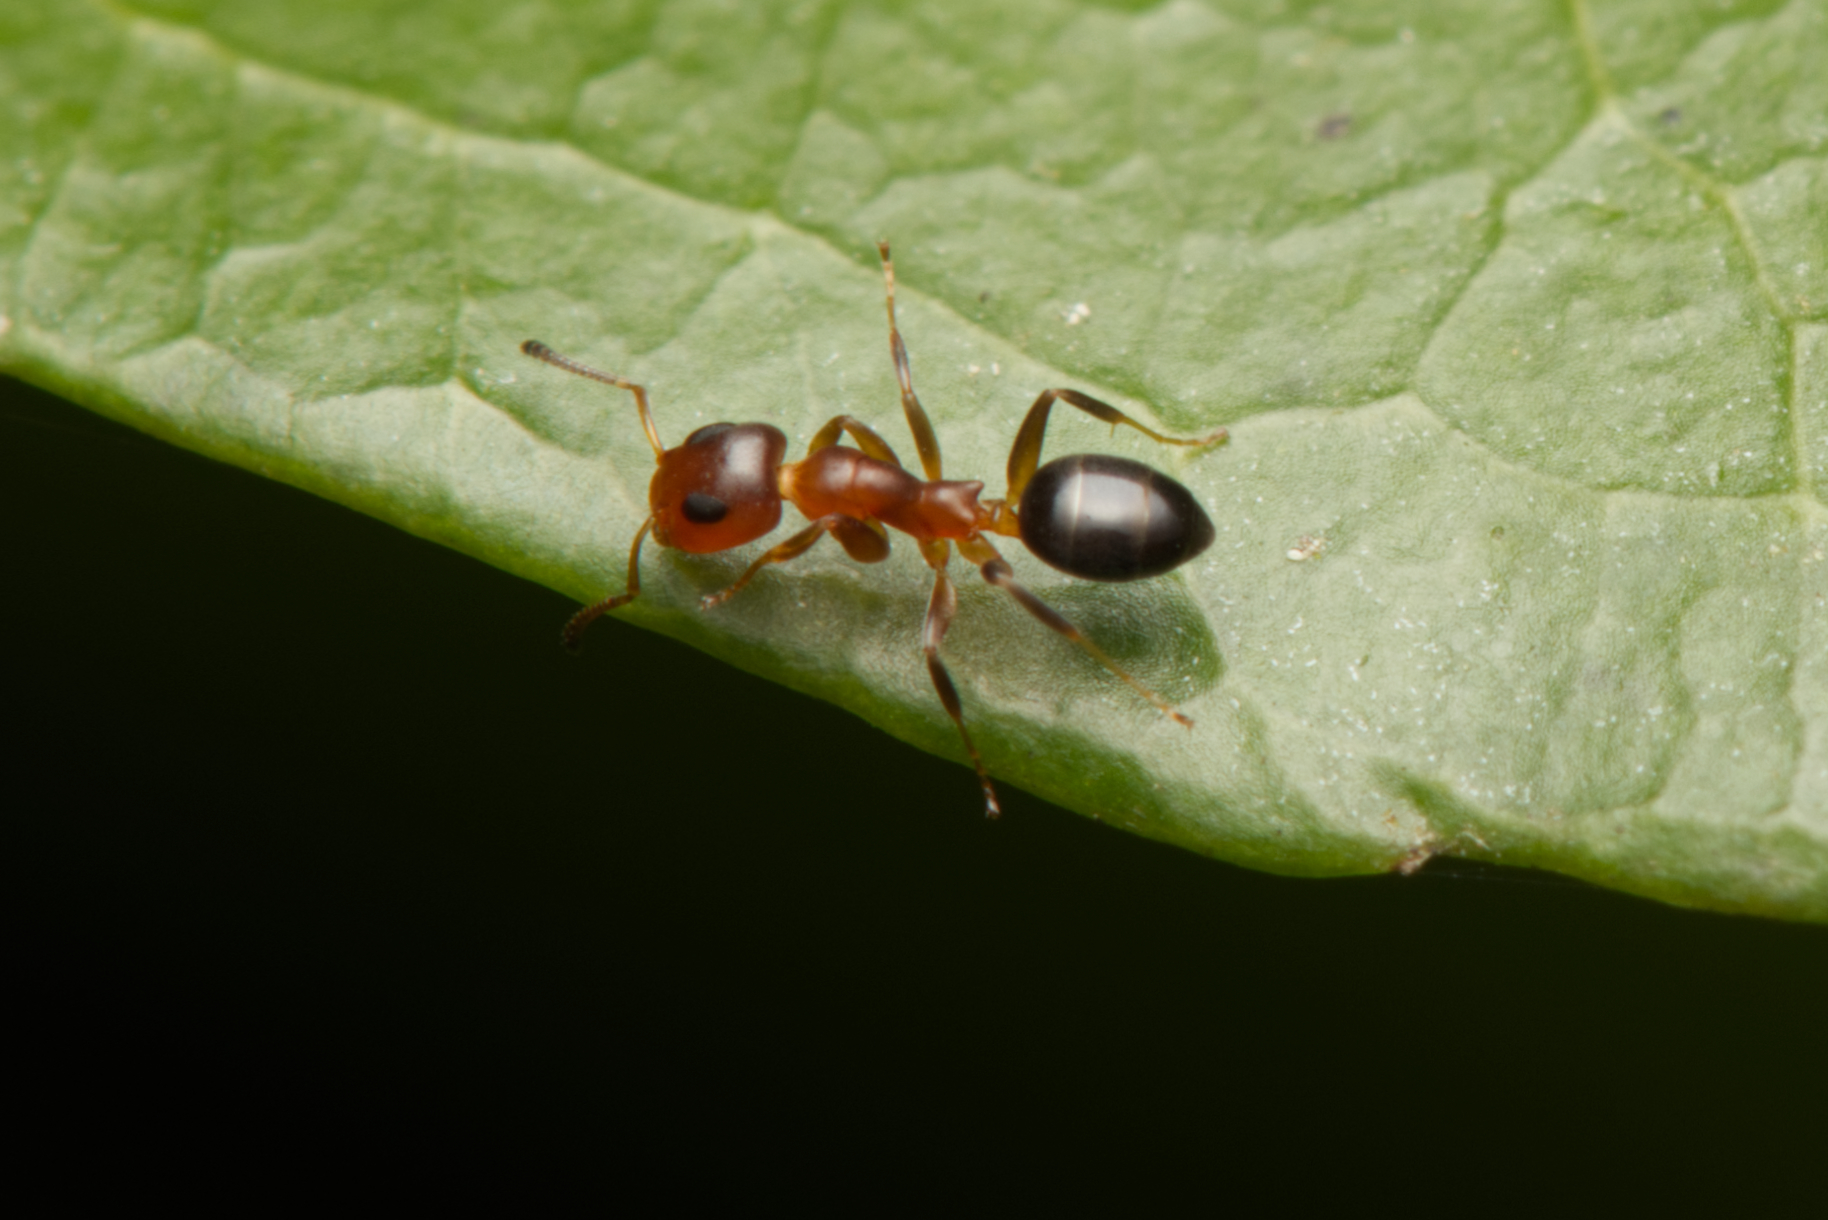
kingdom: Animalia
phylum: Arthropoda
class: Insecta
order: Hymenoptera
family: Formicidae
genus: Turneria
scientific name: Turneria bidentata
